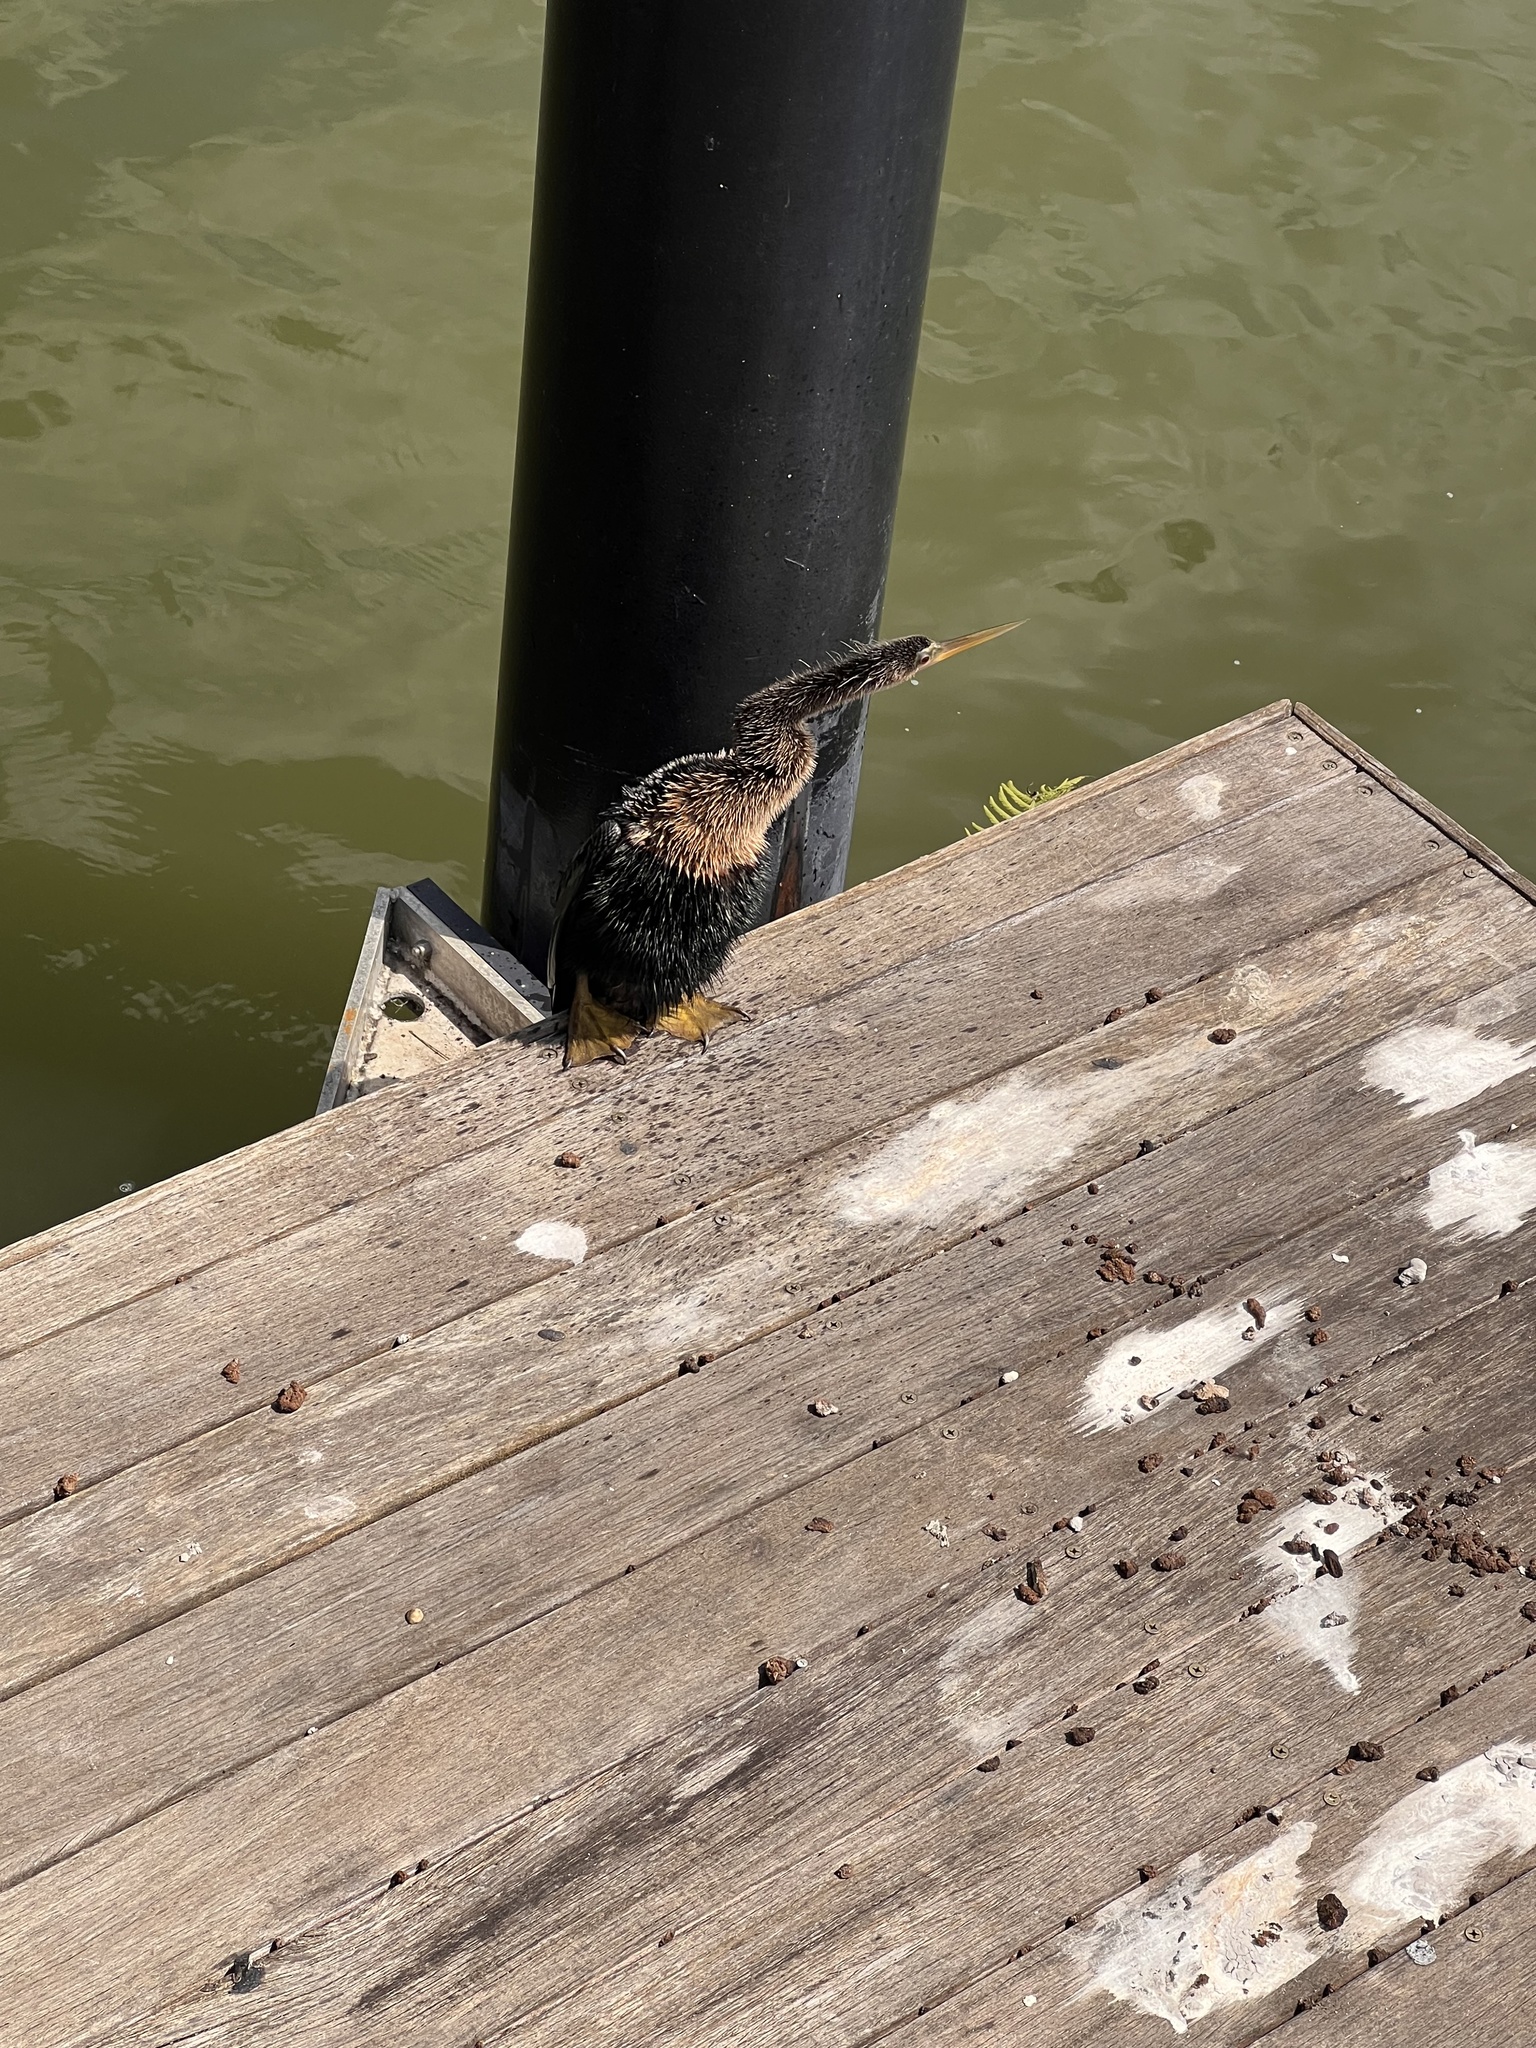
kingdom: Animalia
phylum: Chordata
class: Aves
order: Suliformes
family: Anhingidae
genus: Anhinga
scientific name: Anhinga anhinga
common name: Anhinga
